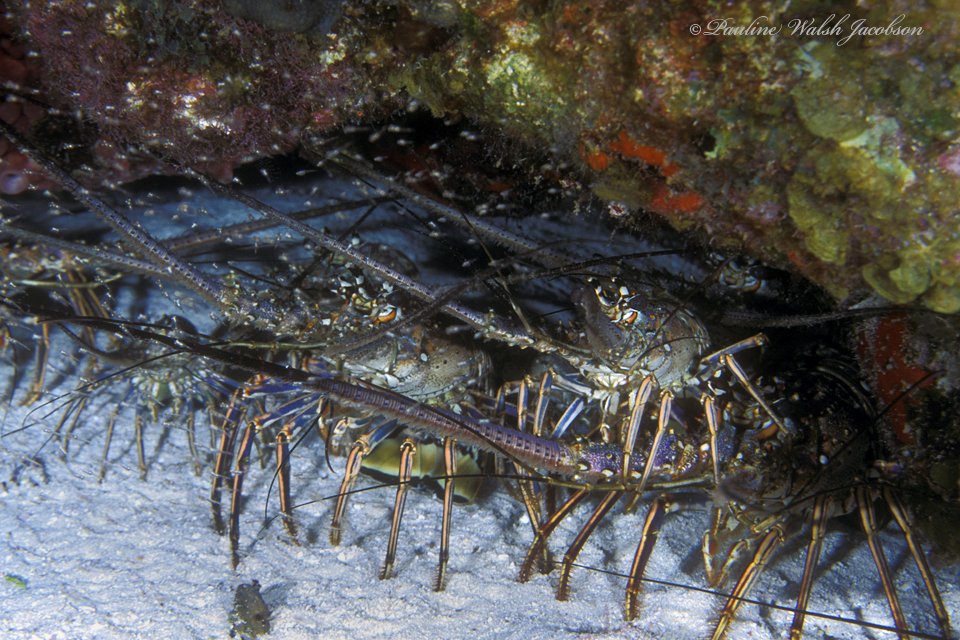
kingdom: Animalia
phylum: Arthropoda
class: Malacostraca
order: Decapoda
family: Palinuridae
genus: Panulirus
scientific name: Panulirus argus
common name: Caribbean spiny lobster
